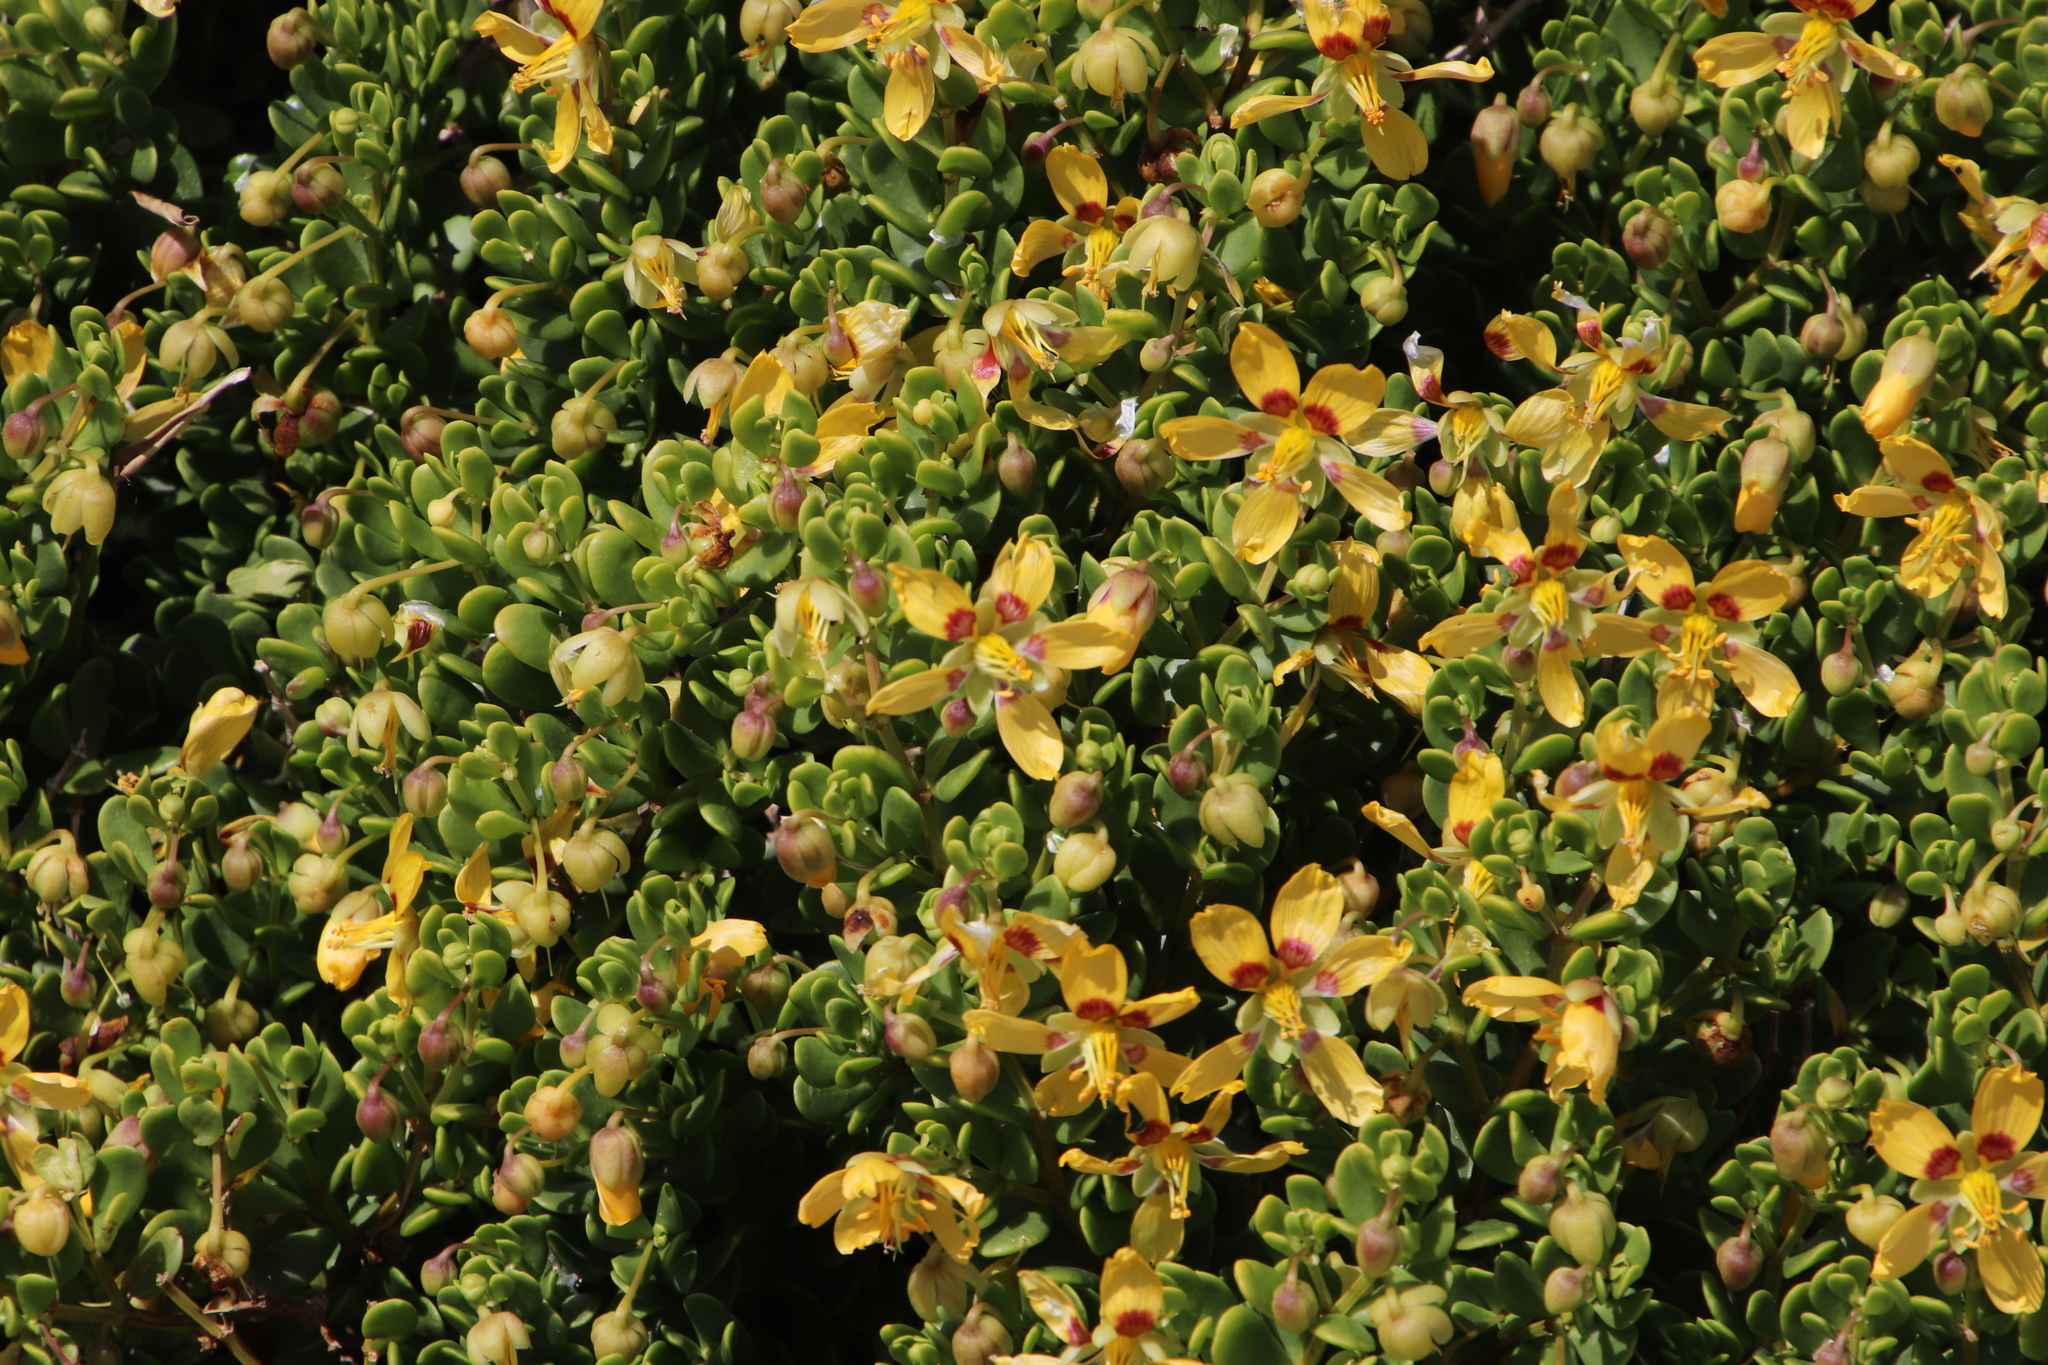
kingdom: Plantae
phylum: Tracheophyta
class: Magnoliopsida
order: Zygophyllales
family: Zygophyllaceae
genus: Roepera
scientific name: Roepera flexuosa
